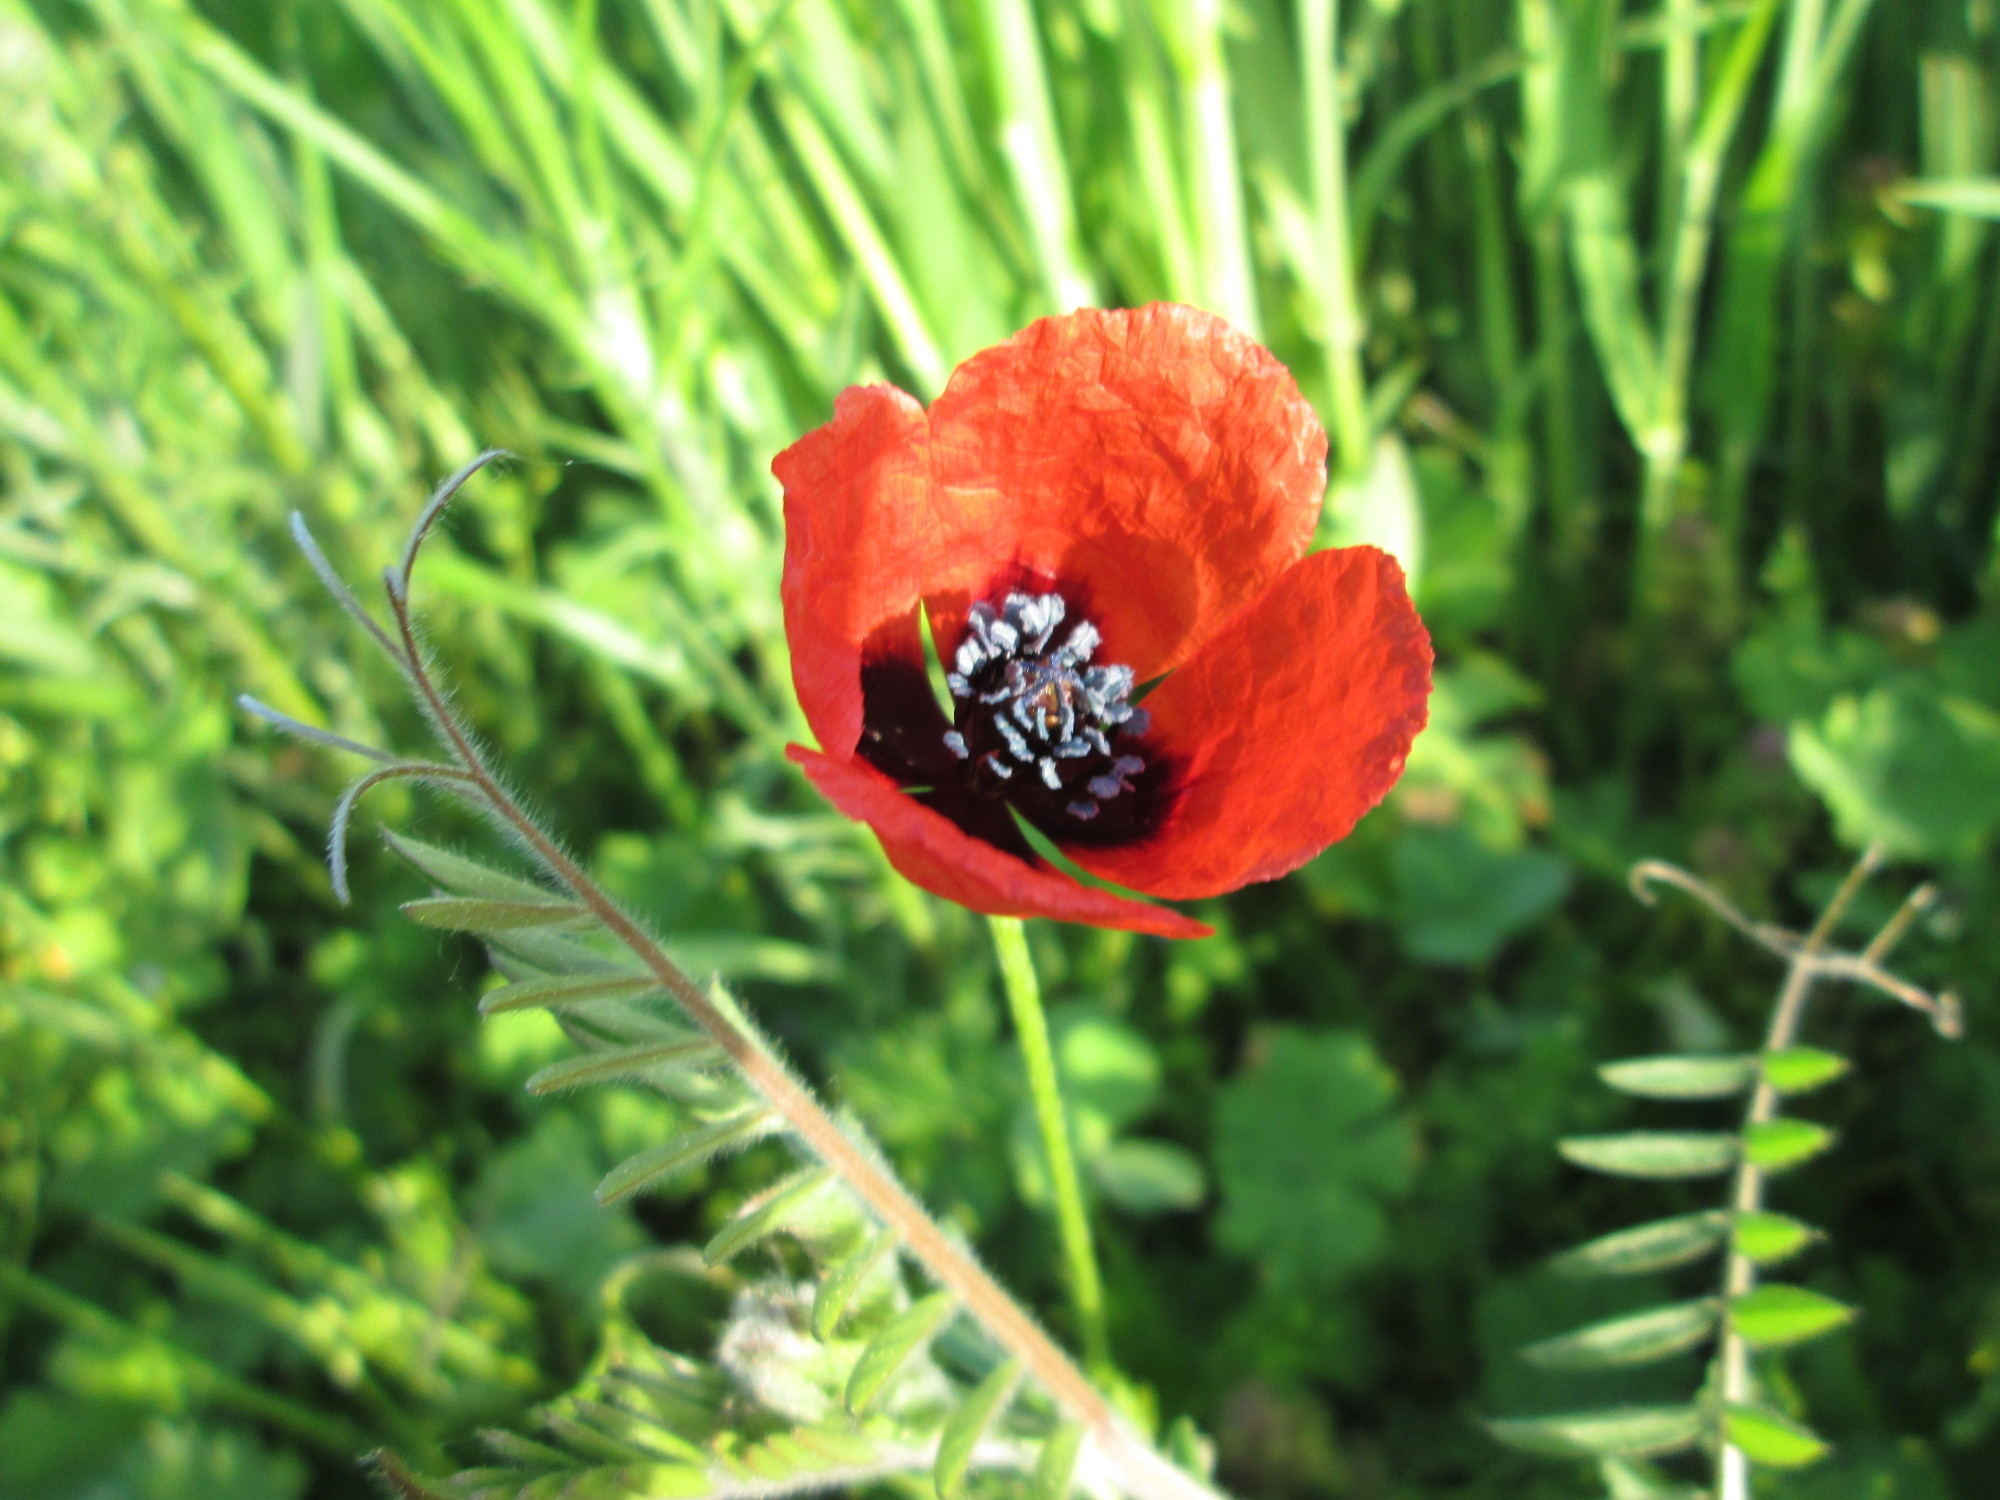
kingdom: Plantae
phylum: Tracheophyta
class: Magnoliopsida
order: Ranunculales
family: Papaveraceae
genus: Roemeria
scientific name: Roemeria argemone
